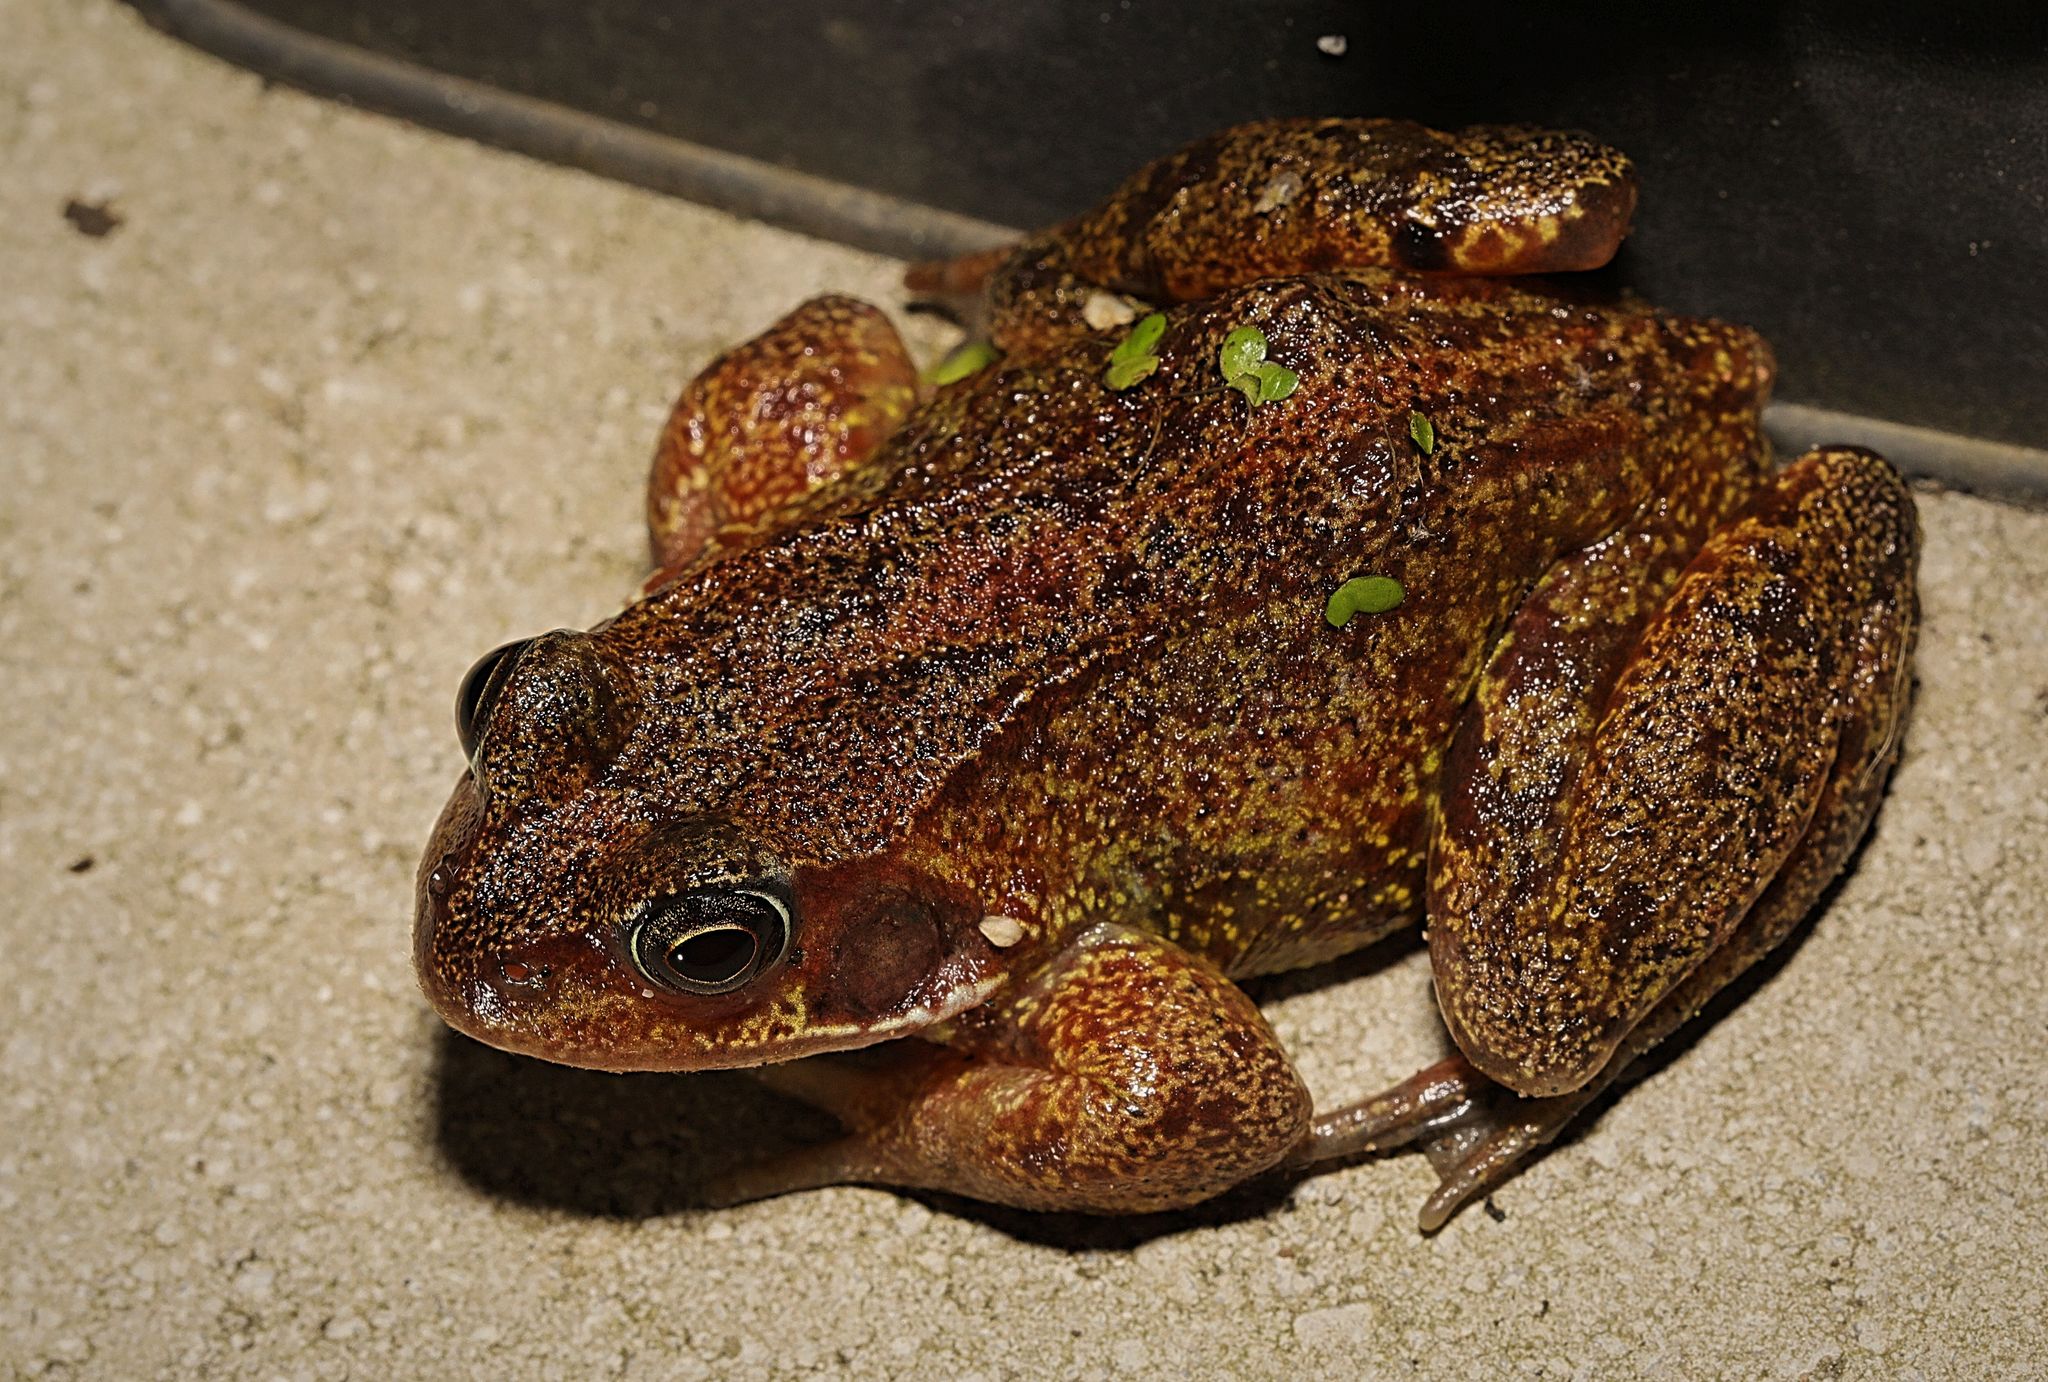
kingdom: Animalia
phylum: Chordata
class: Amphibia
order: Anura
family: Ranidae
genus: Rana
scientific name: Rana temporaria
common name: Common frog
